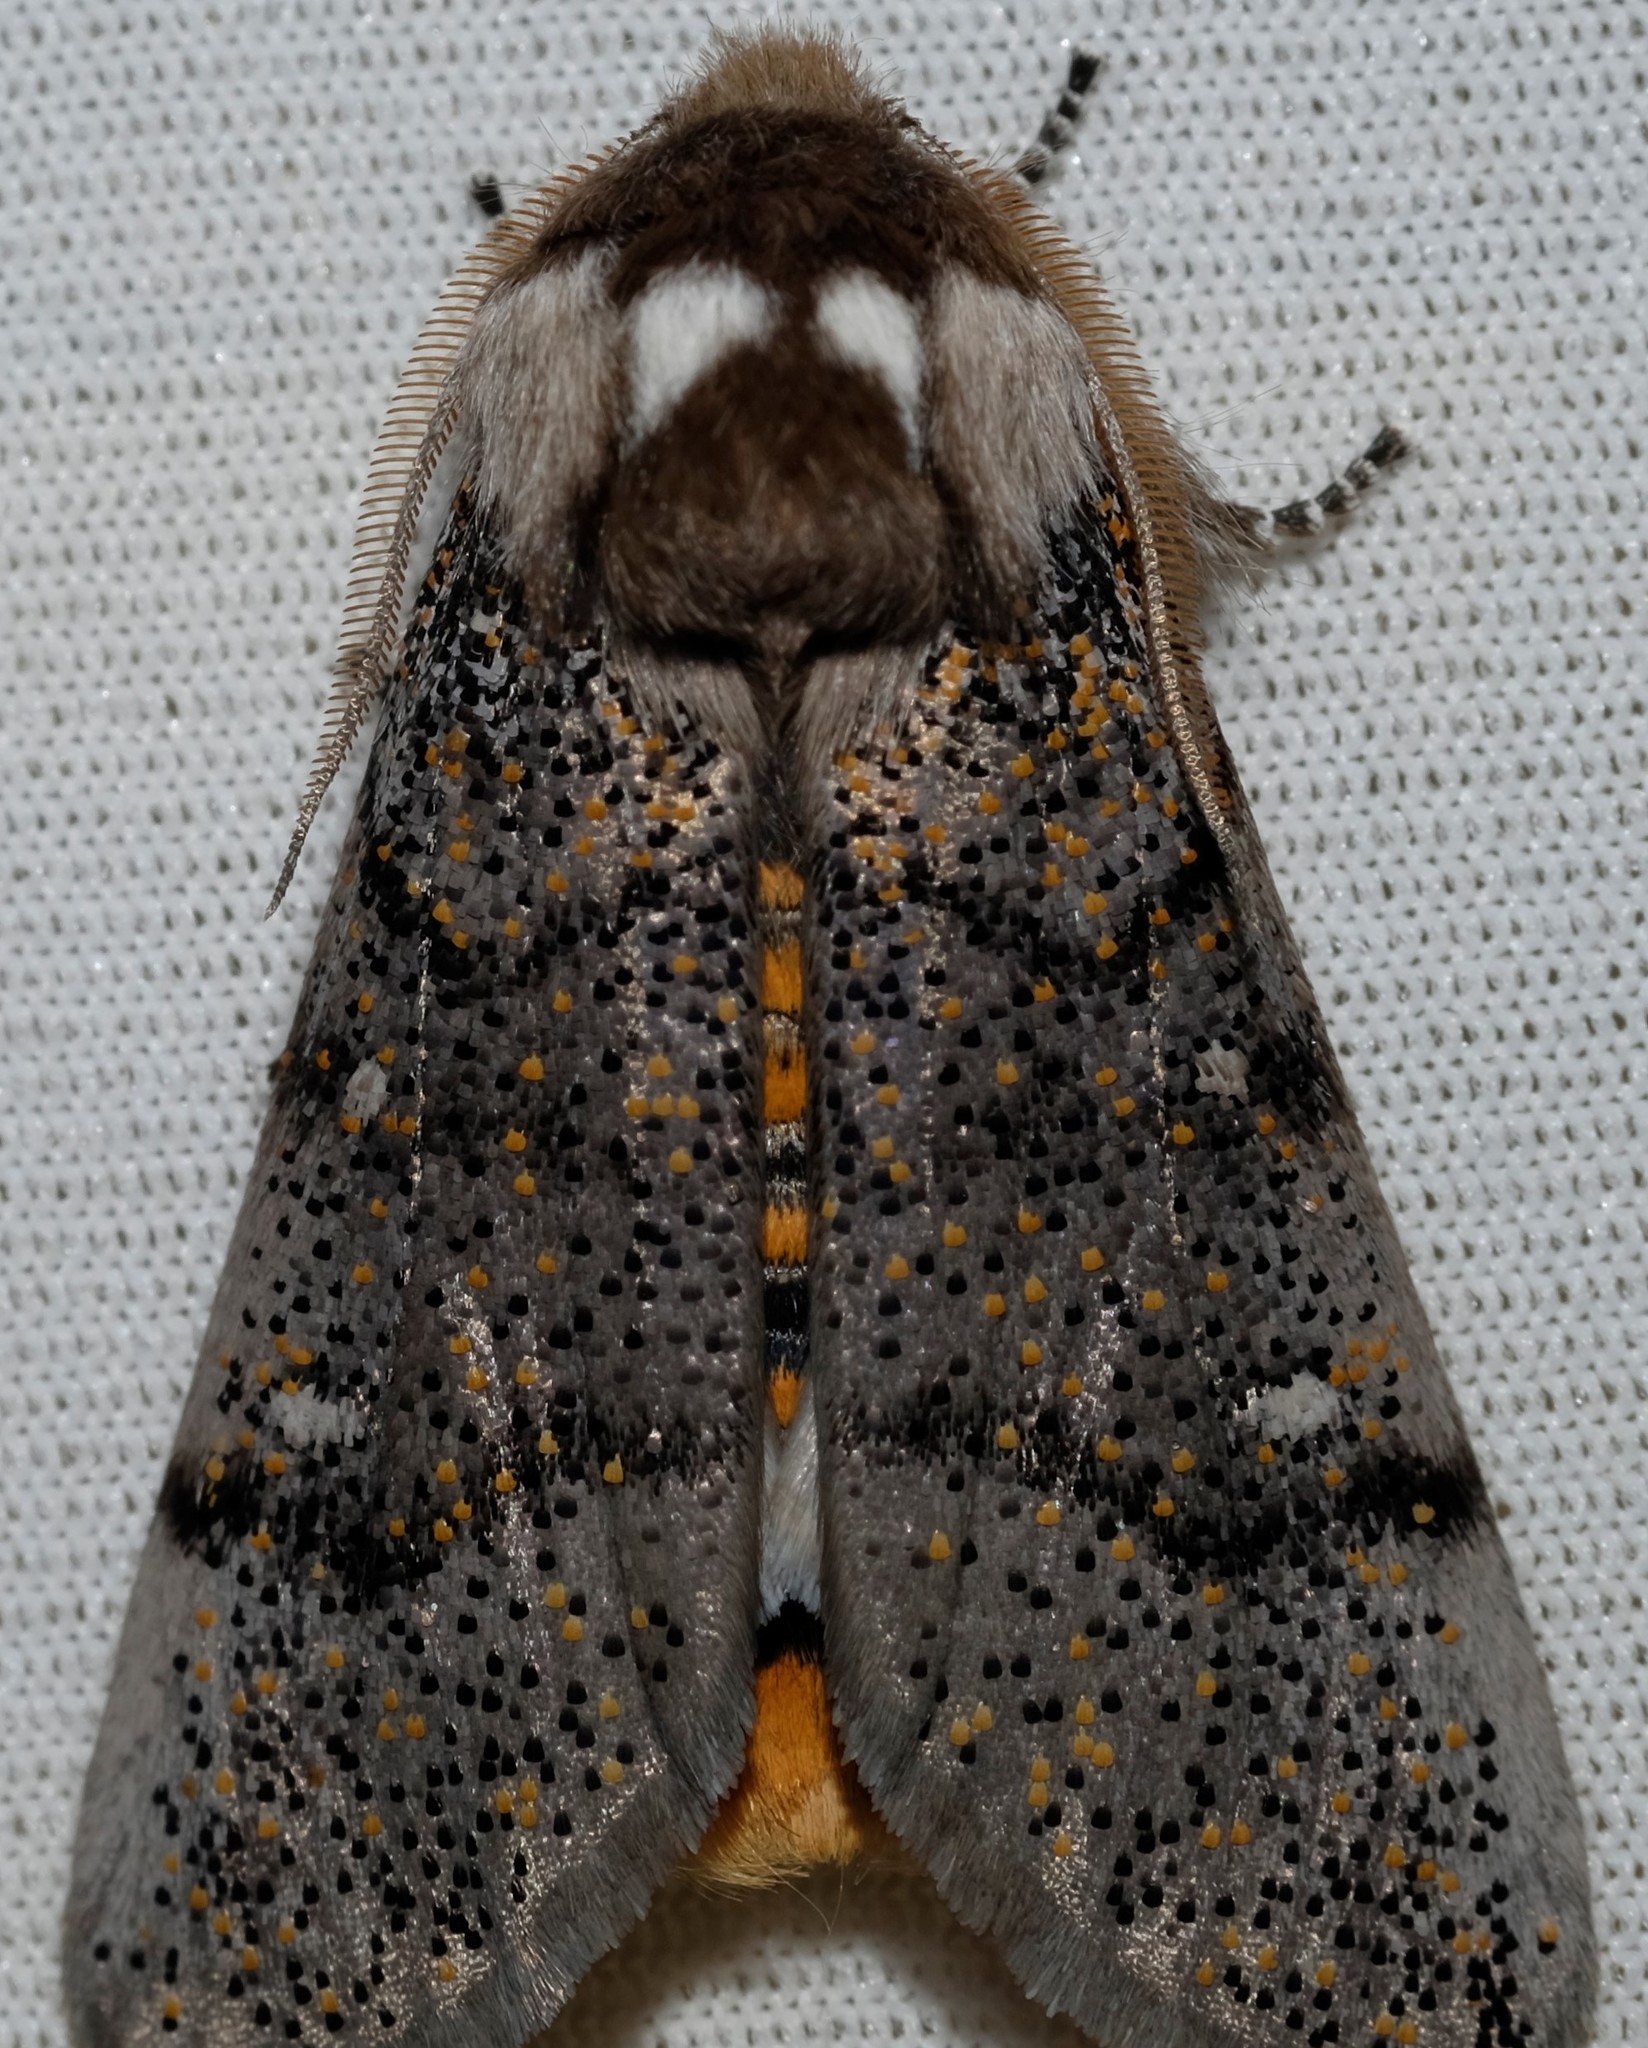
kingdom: Animalia
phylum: Arthropoda
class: Insecta
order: Lepidoptera
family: Oenosandridae
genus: Oenosandra
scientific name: Oenosandra boisduvalii
